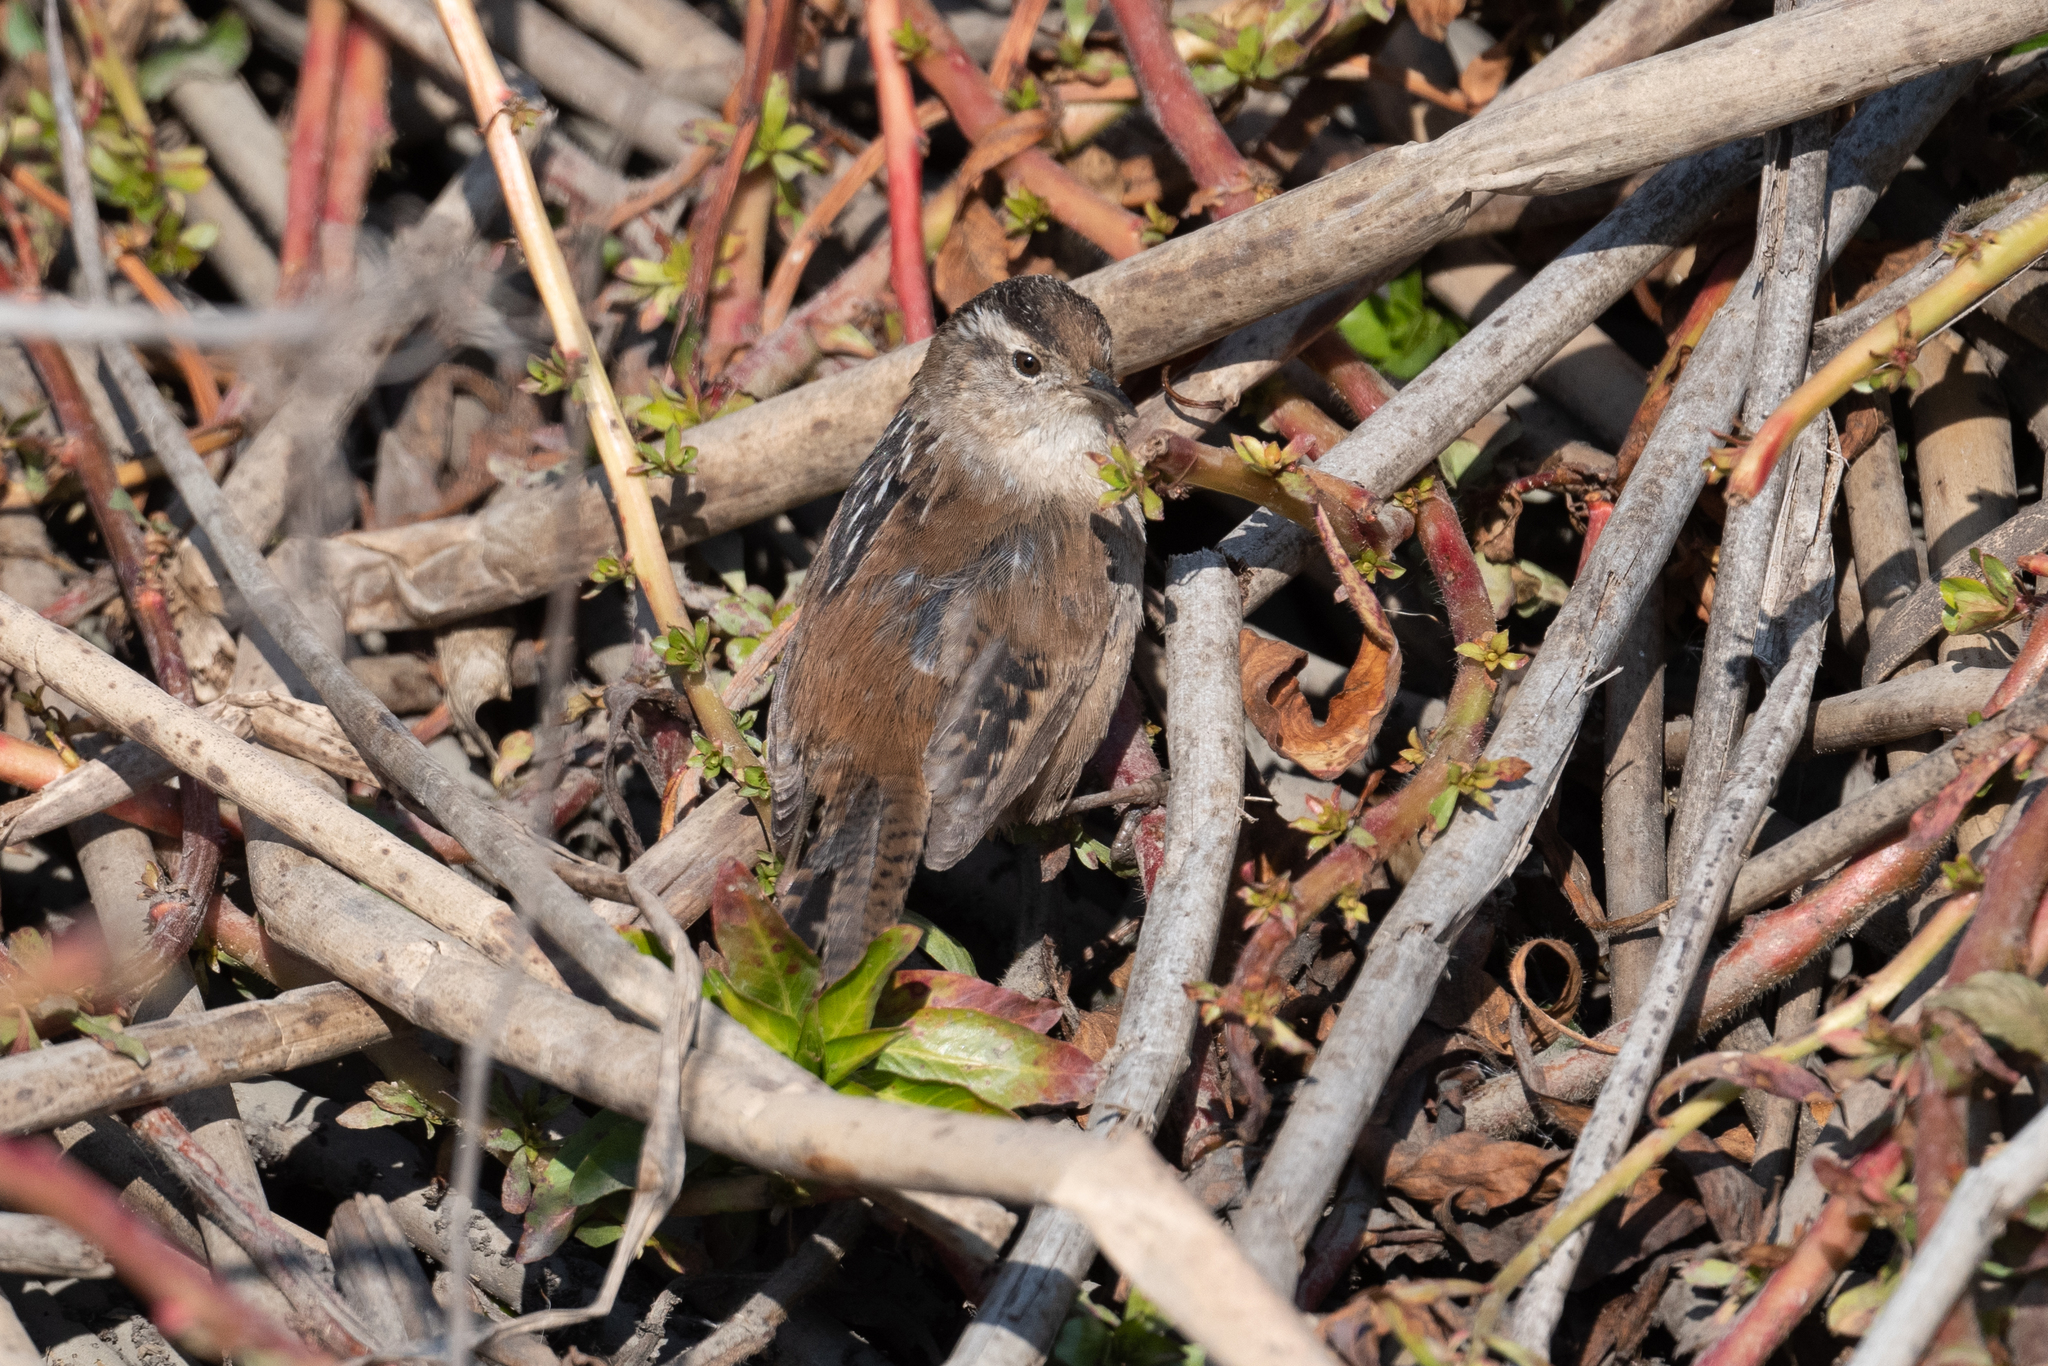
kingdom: Animalia
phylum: Chordata
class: Aves
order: Passeriformes
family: Troglodytidae
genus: Cistothorus
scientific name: Cistothorus palustris
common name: Marsh wren
